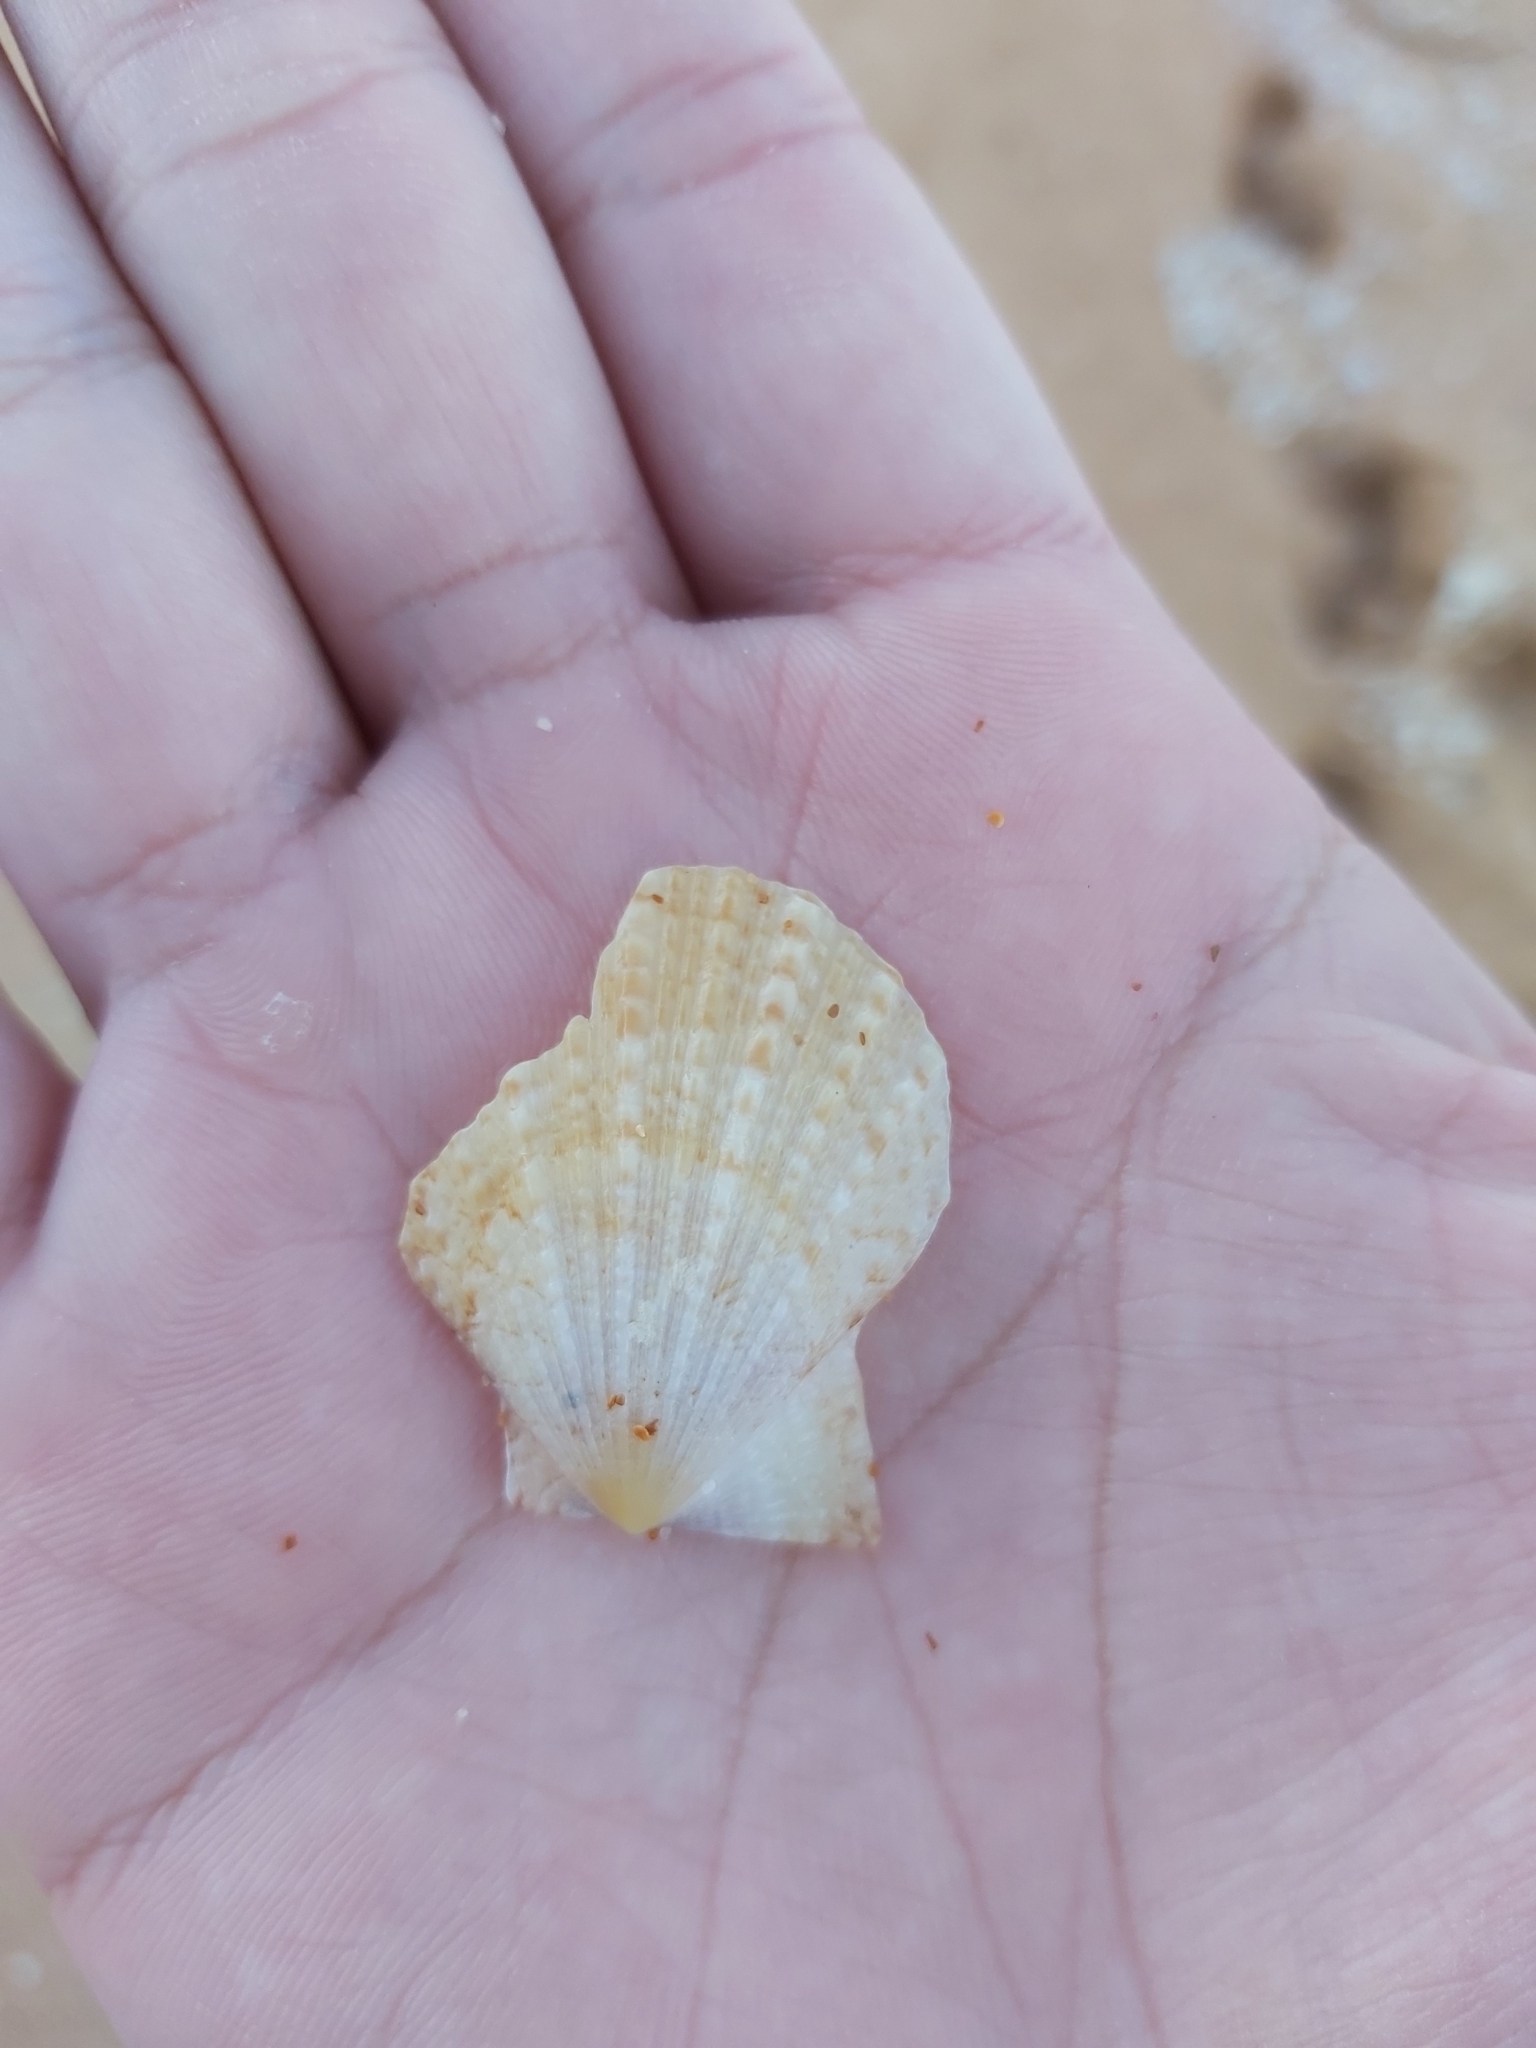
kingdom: Animalia
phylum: Mollusca
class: Bivalvia
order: Pectinida
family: Pectinidae
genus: Scaeochlamys
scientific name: Scaeochlamys livida
